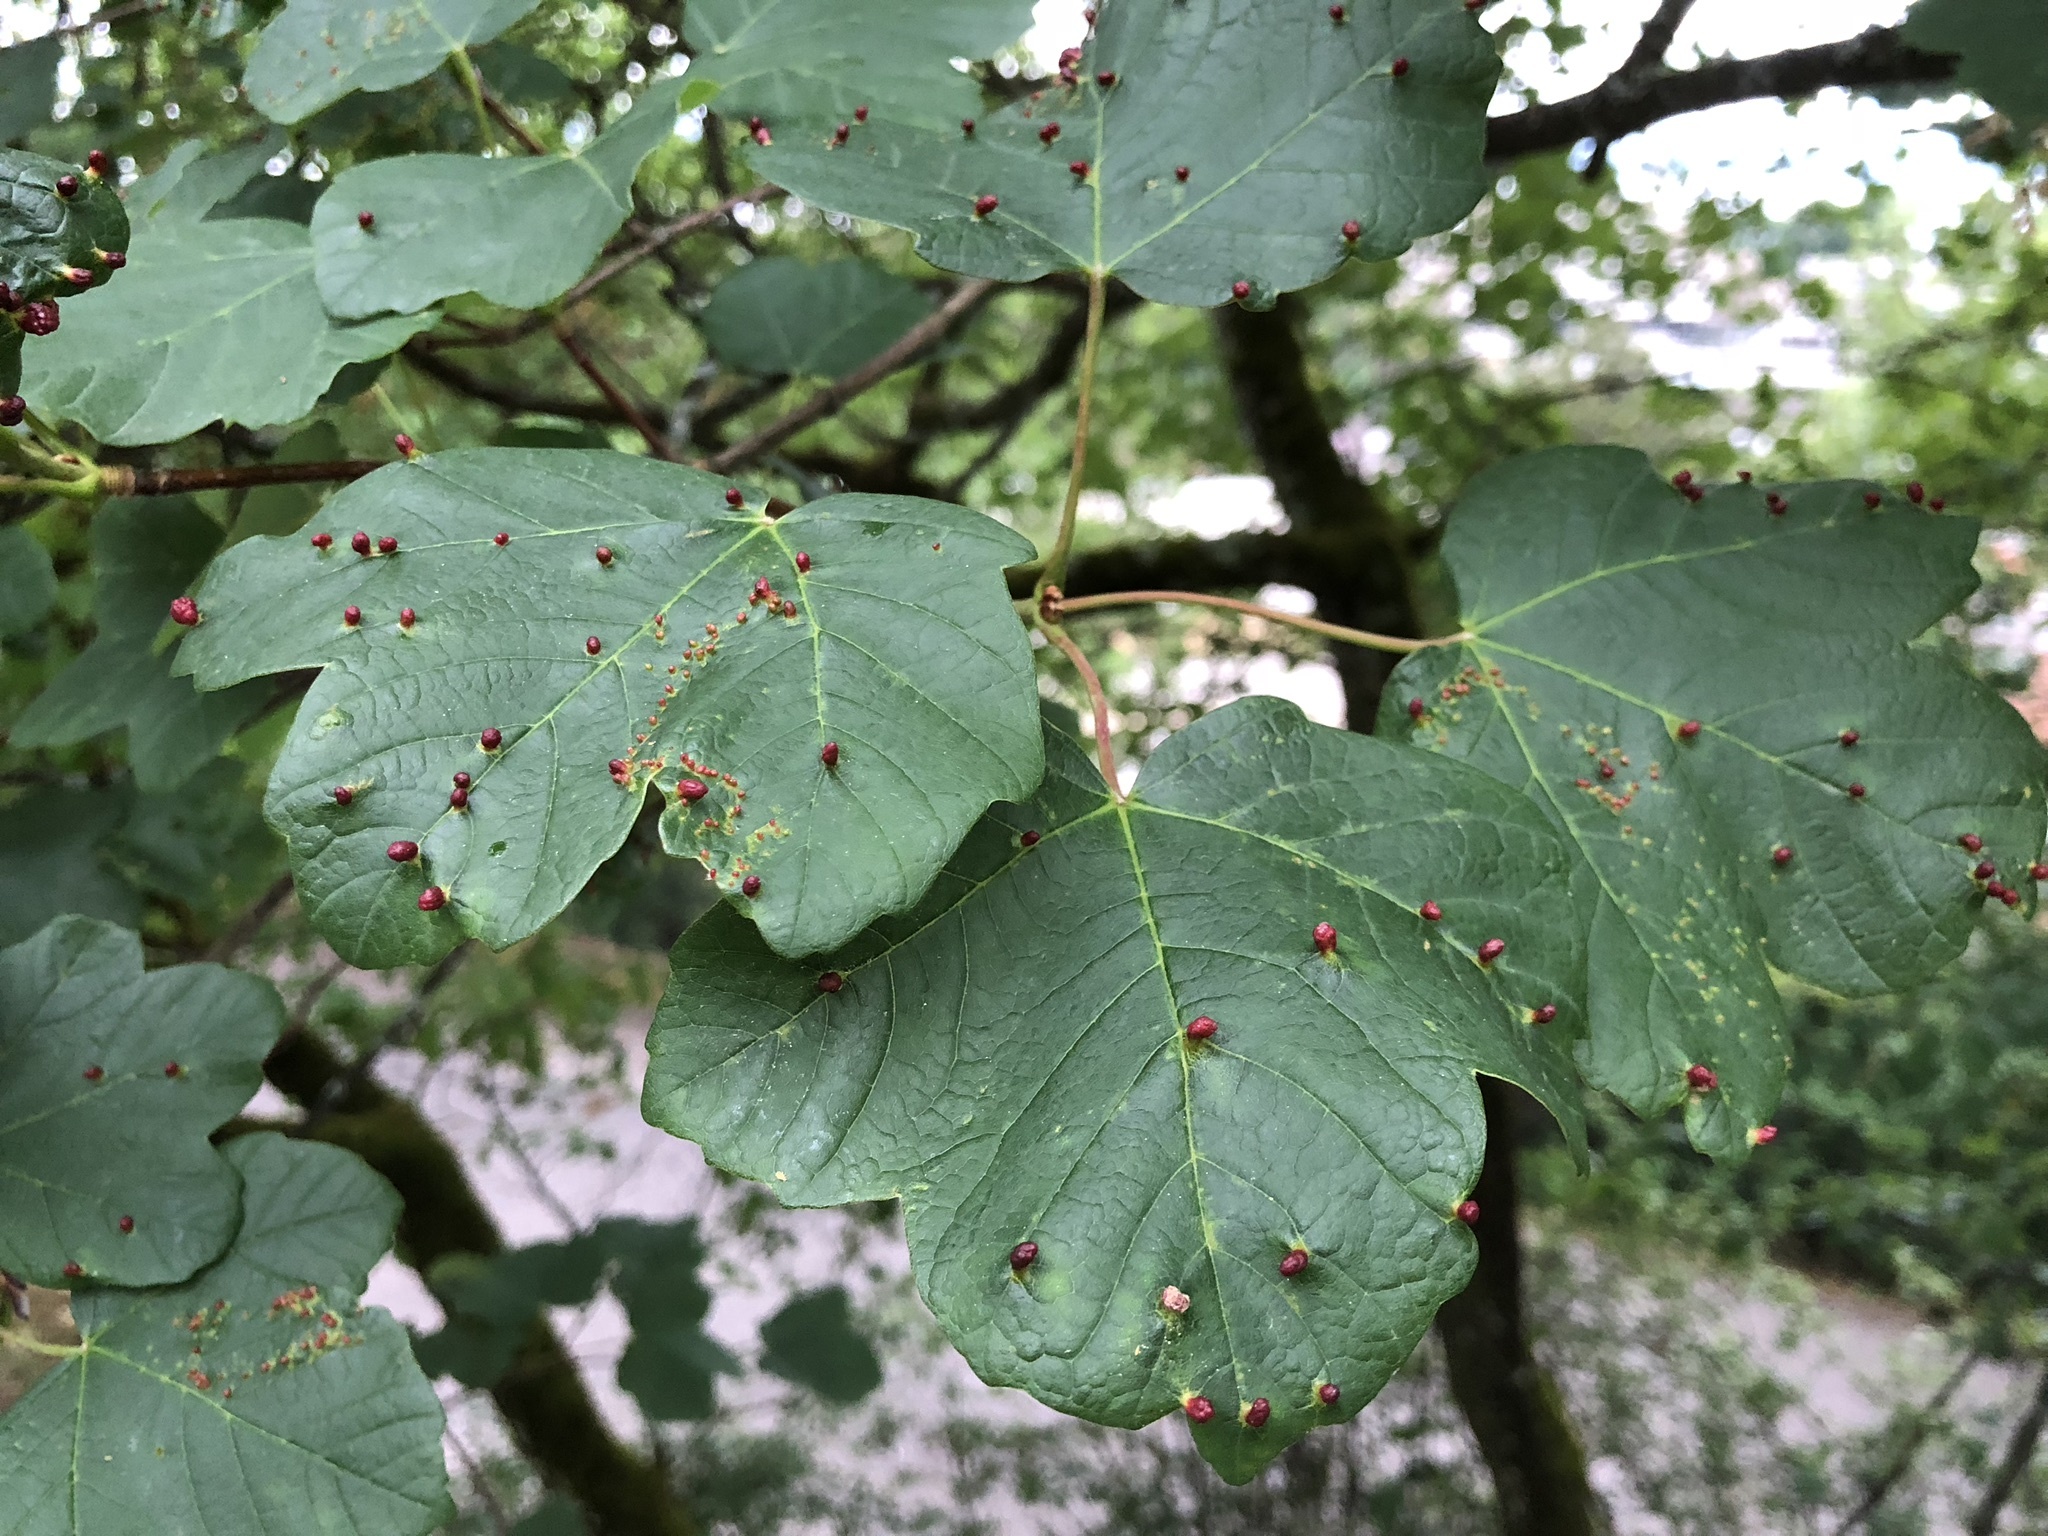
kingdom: Animalia
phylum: Arthropoda
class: Arachnida
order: Trombidiformes
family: Eriophyidae
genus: Aceria
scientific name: Aceria macrorhynchus
